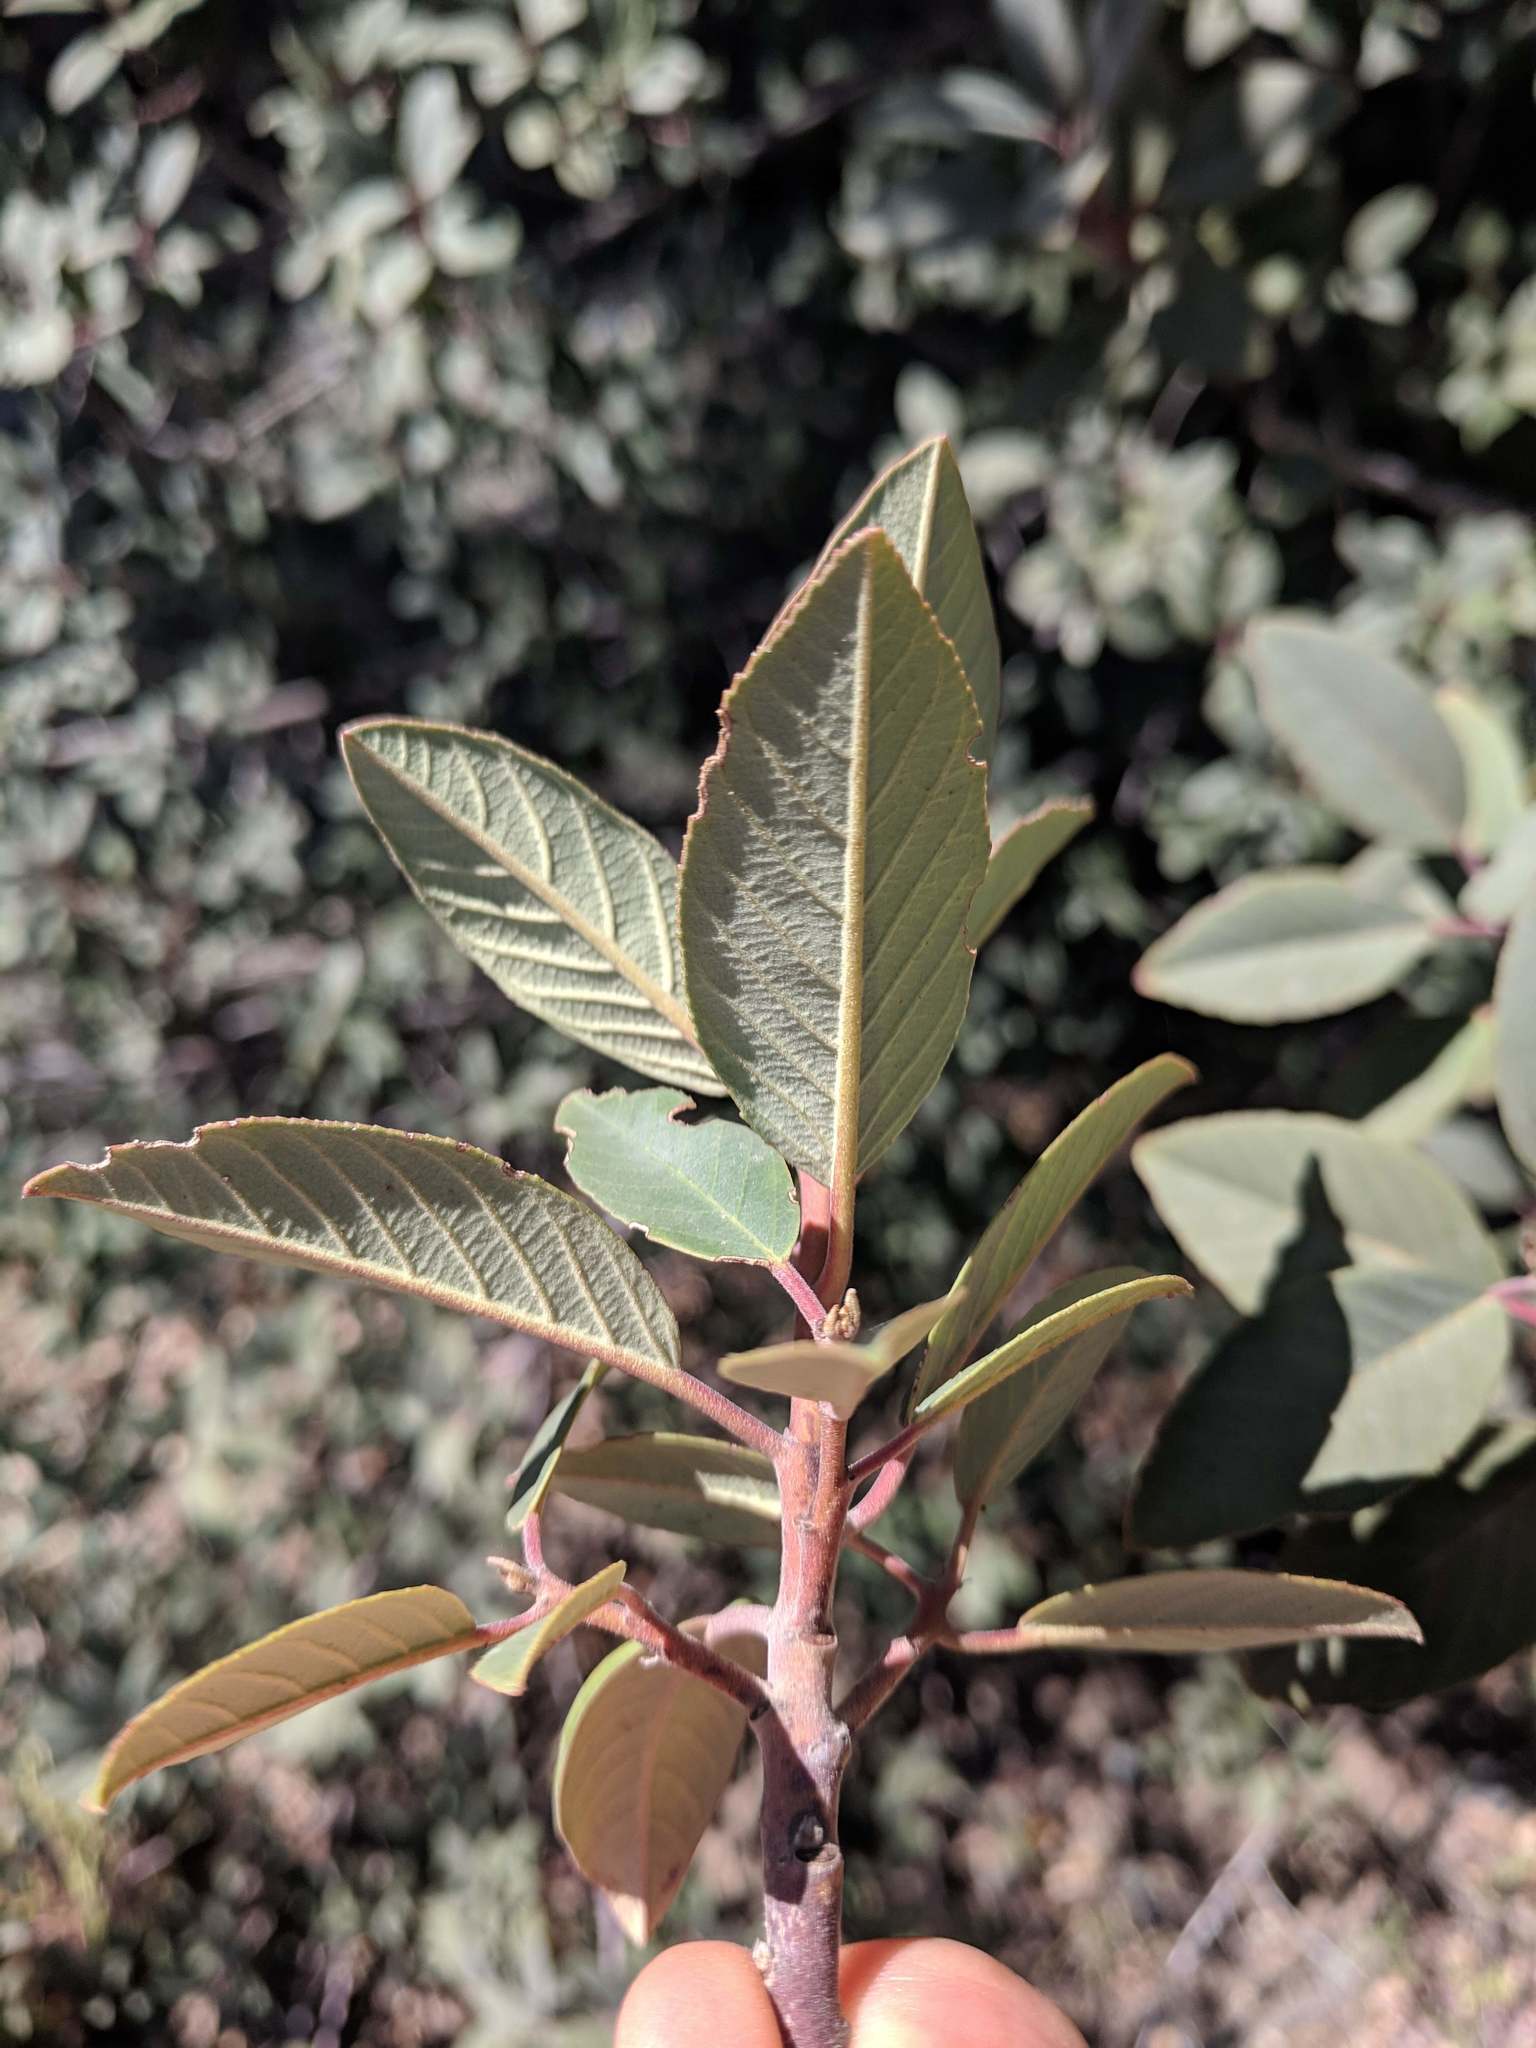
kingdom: Plantae
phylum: Tracheophyta
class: Magnoliopsida
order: Rosales
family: Rhamnaceae
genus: Frangula
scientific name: Frangula californica
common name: California buckthorn
